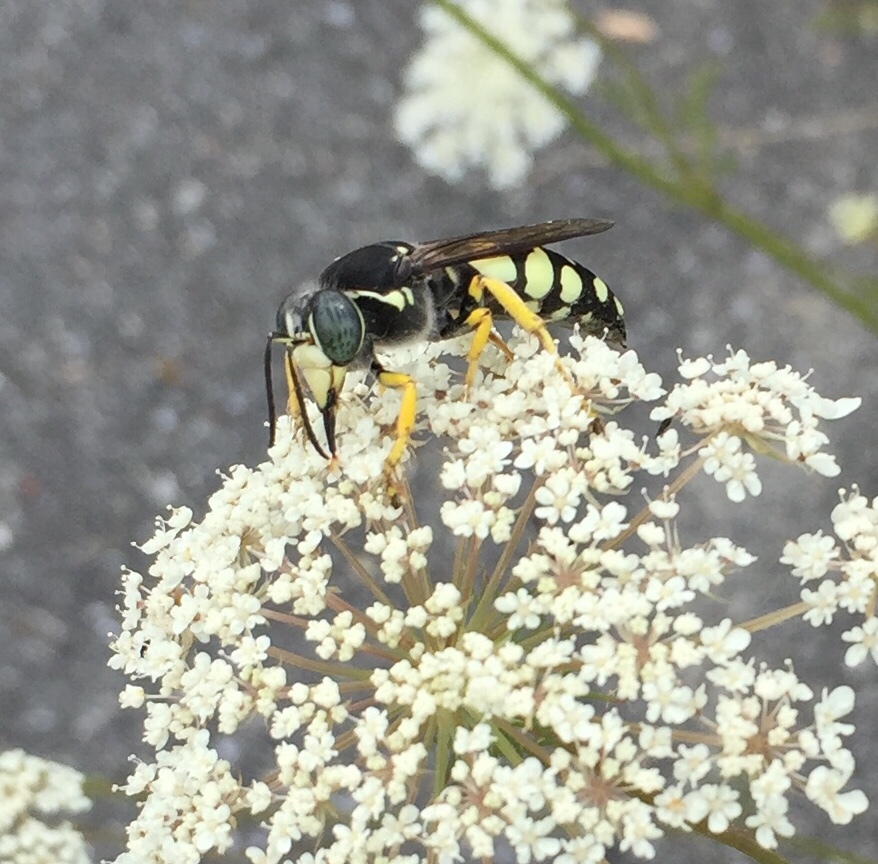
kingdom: Animalia
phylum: Arthropoda
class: Insecta
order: Hymenoptera
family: Crabronidae
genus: Stictia
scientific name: Stictia carolina
